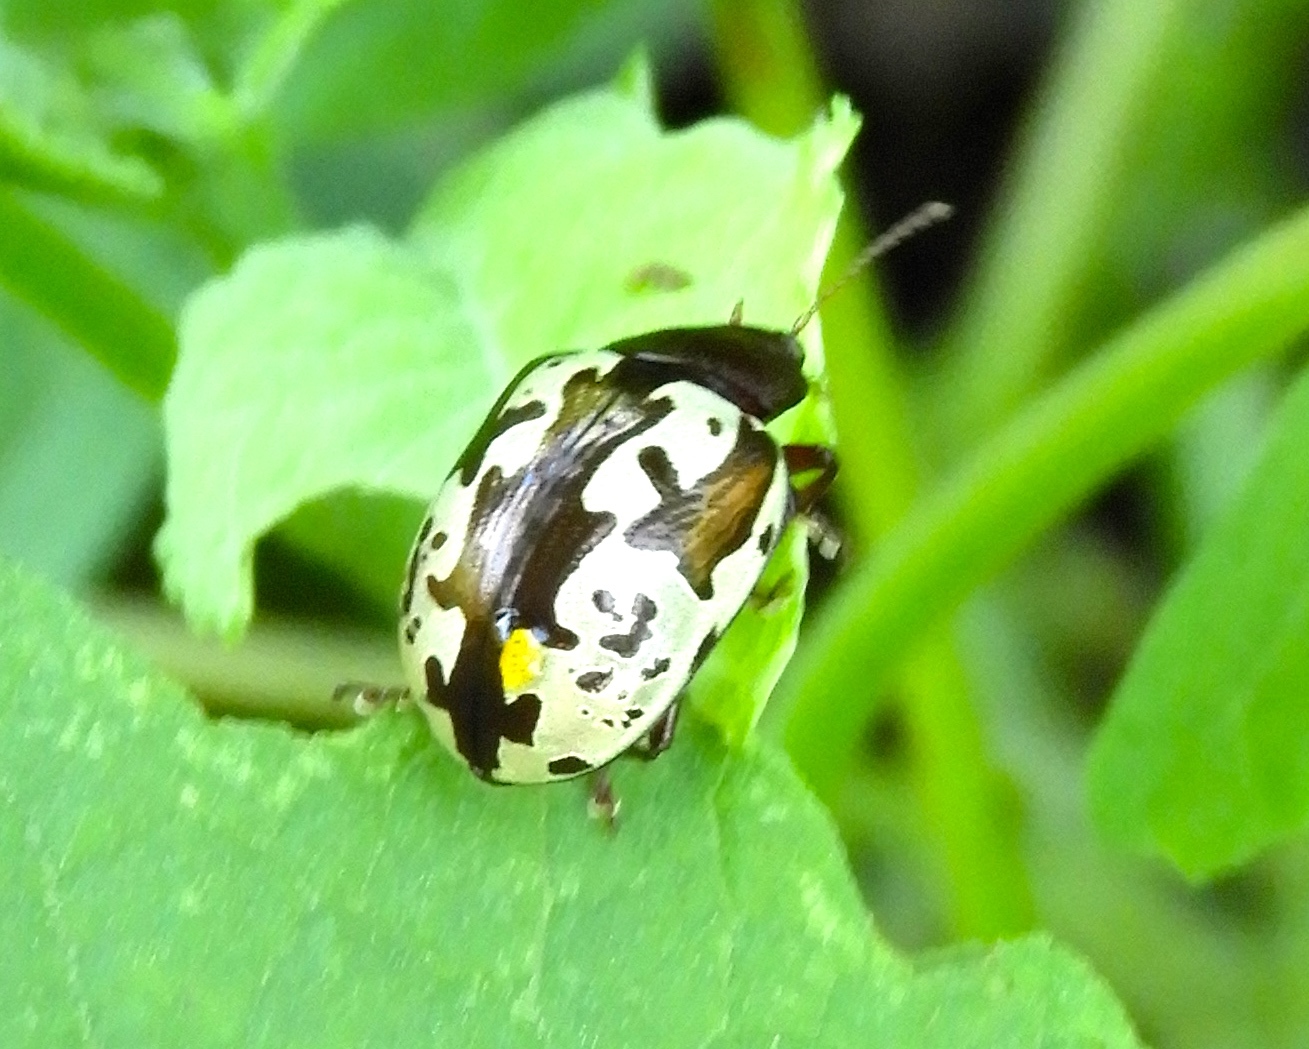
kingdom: Animalia
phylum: Arthropoda
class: Insecta
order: Coleoptera
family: Chrysomelidae
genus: Calligrapha
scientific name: Calligrapha intermedia
